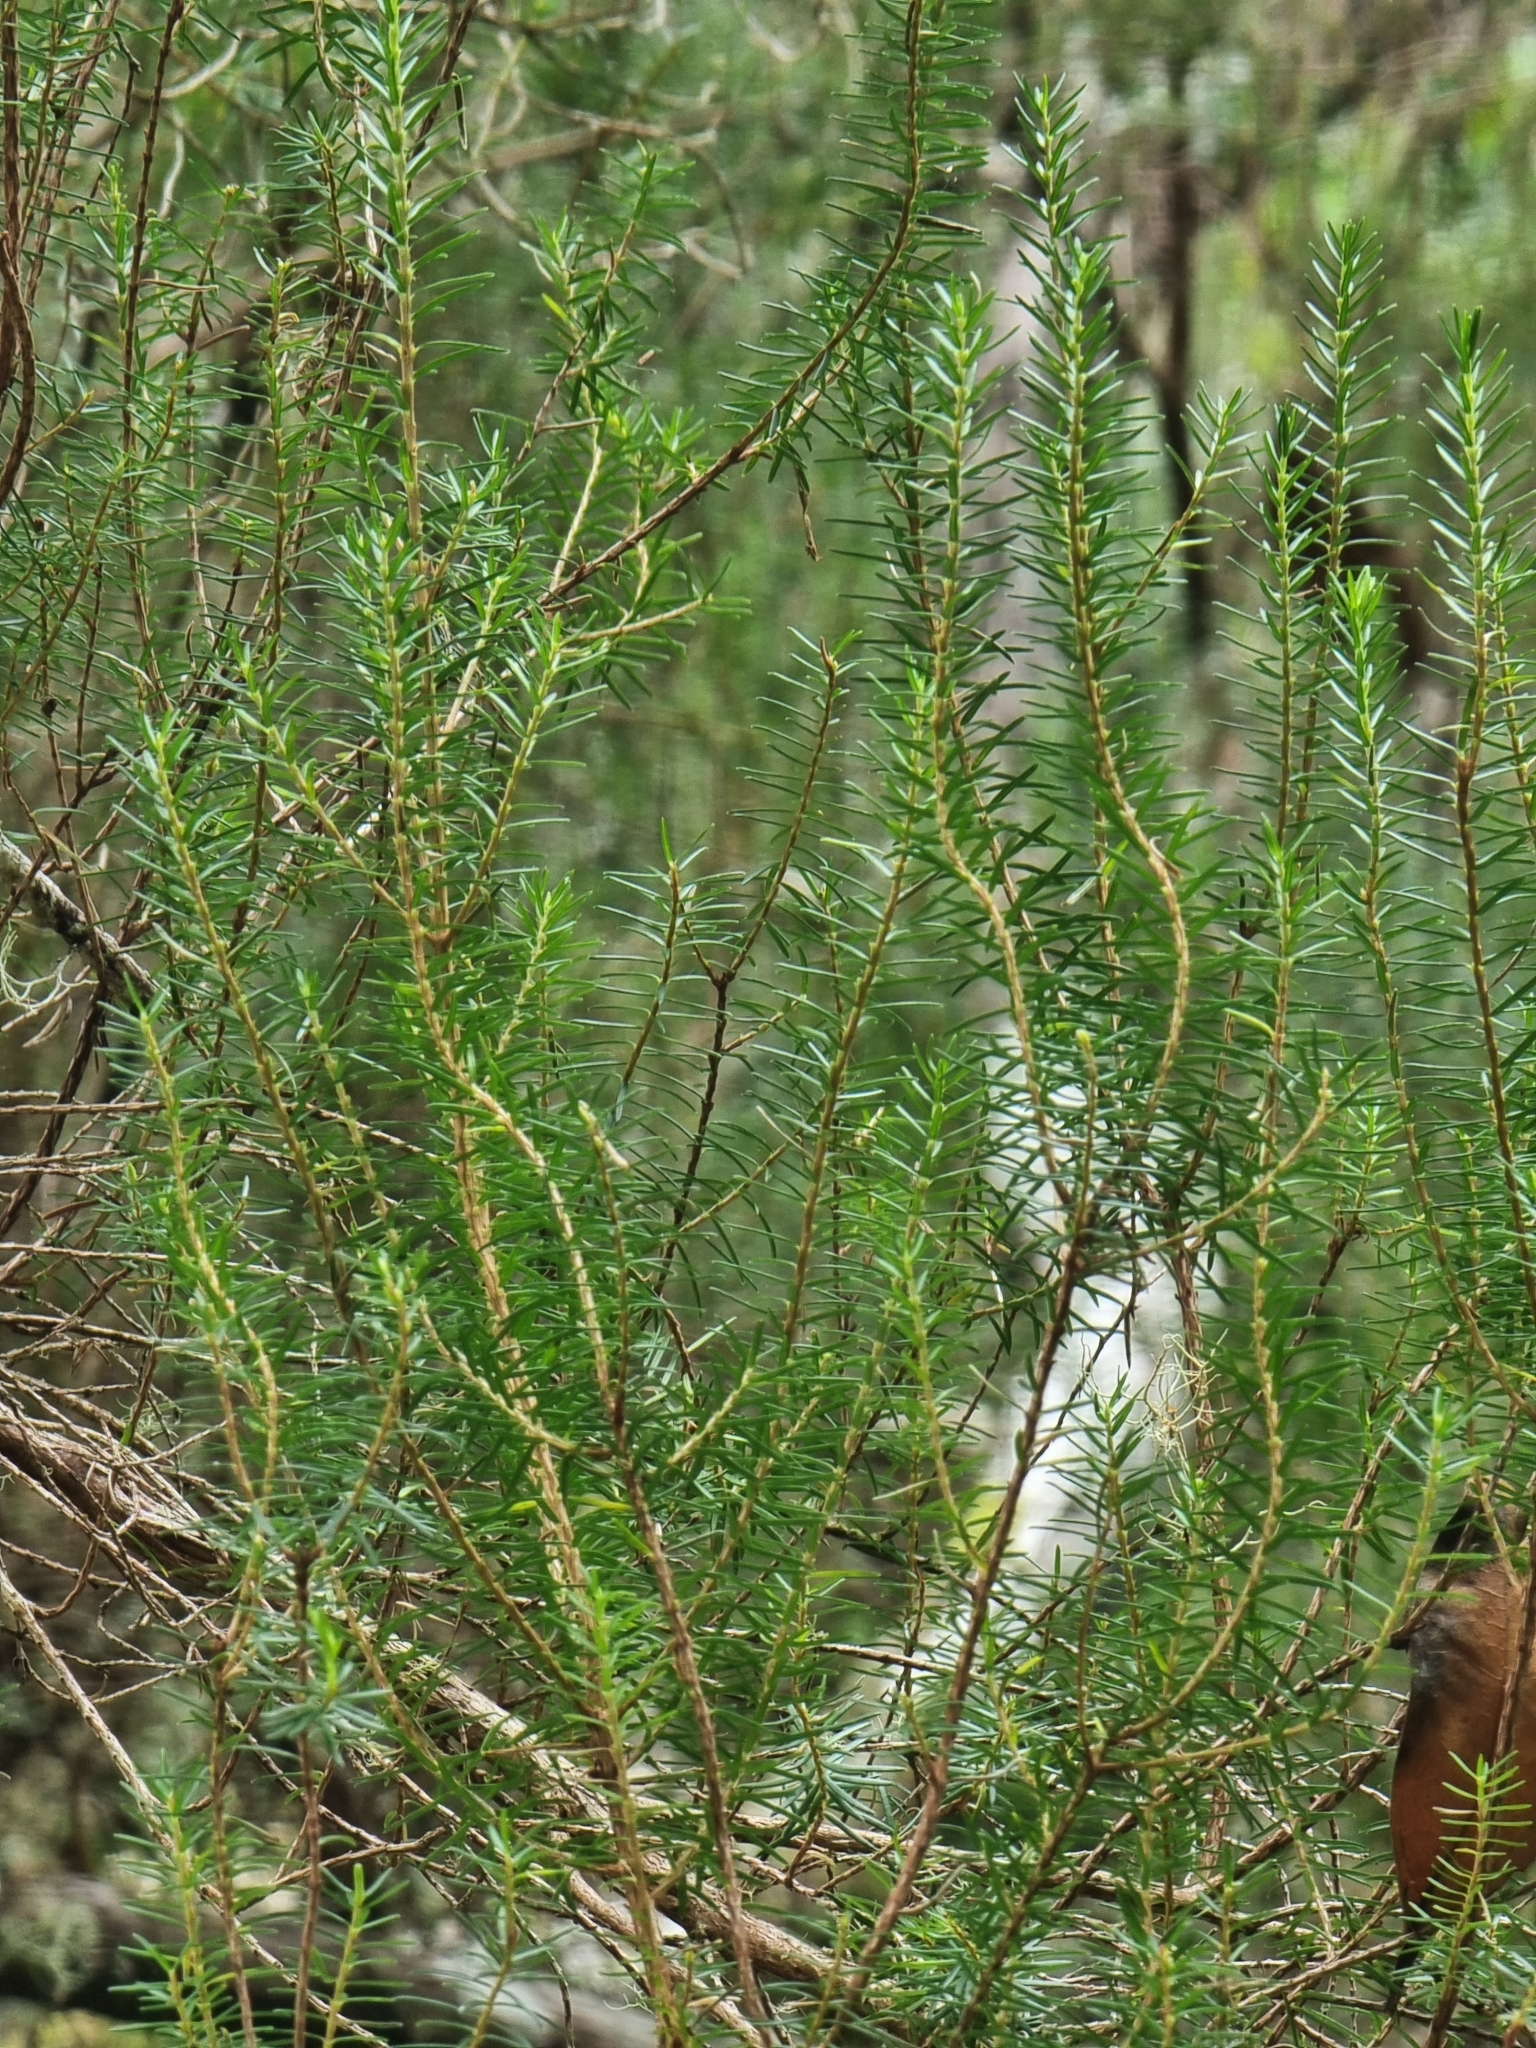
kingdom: Plantae
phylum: Tracheophyta
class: Magnoliopsida
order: Ericales
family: Ericaceae
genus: Erica
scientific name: Erica platycodon
